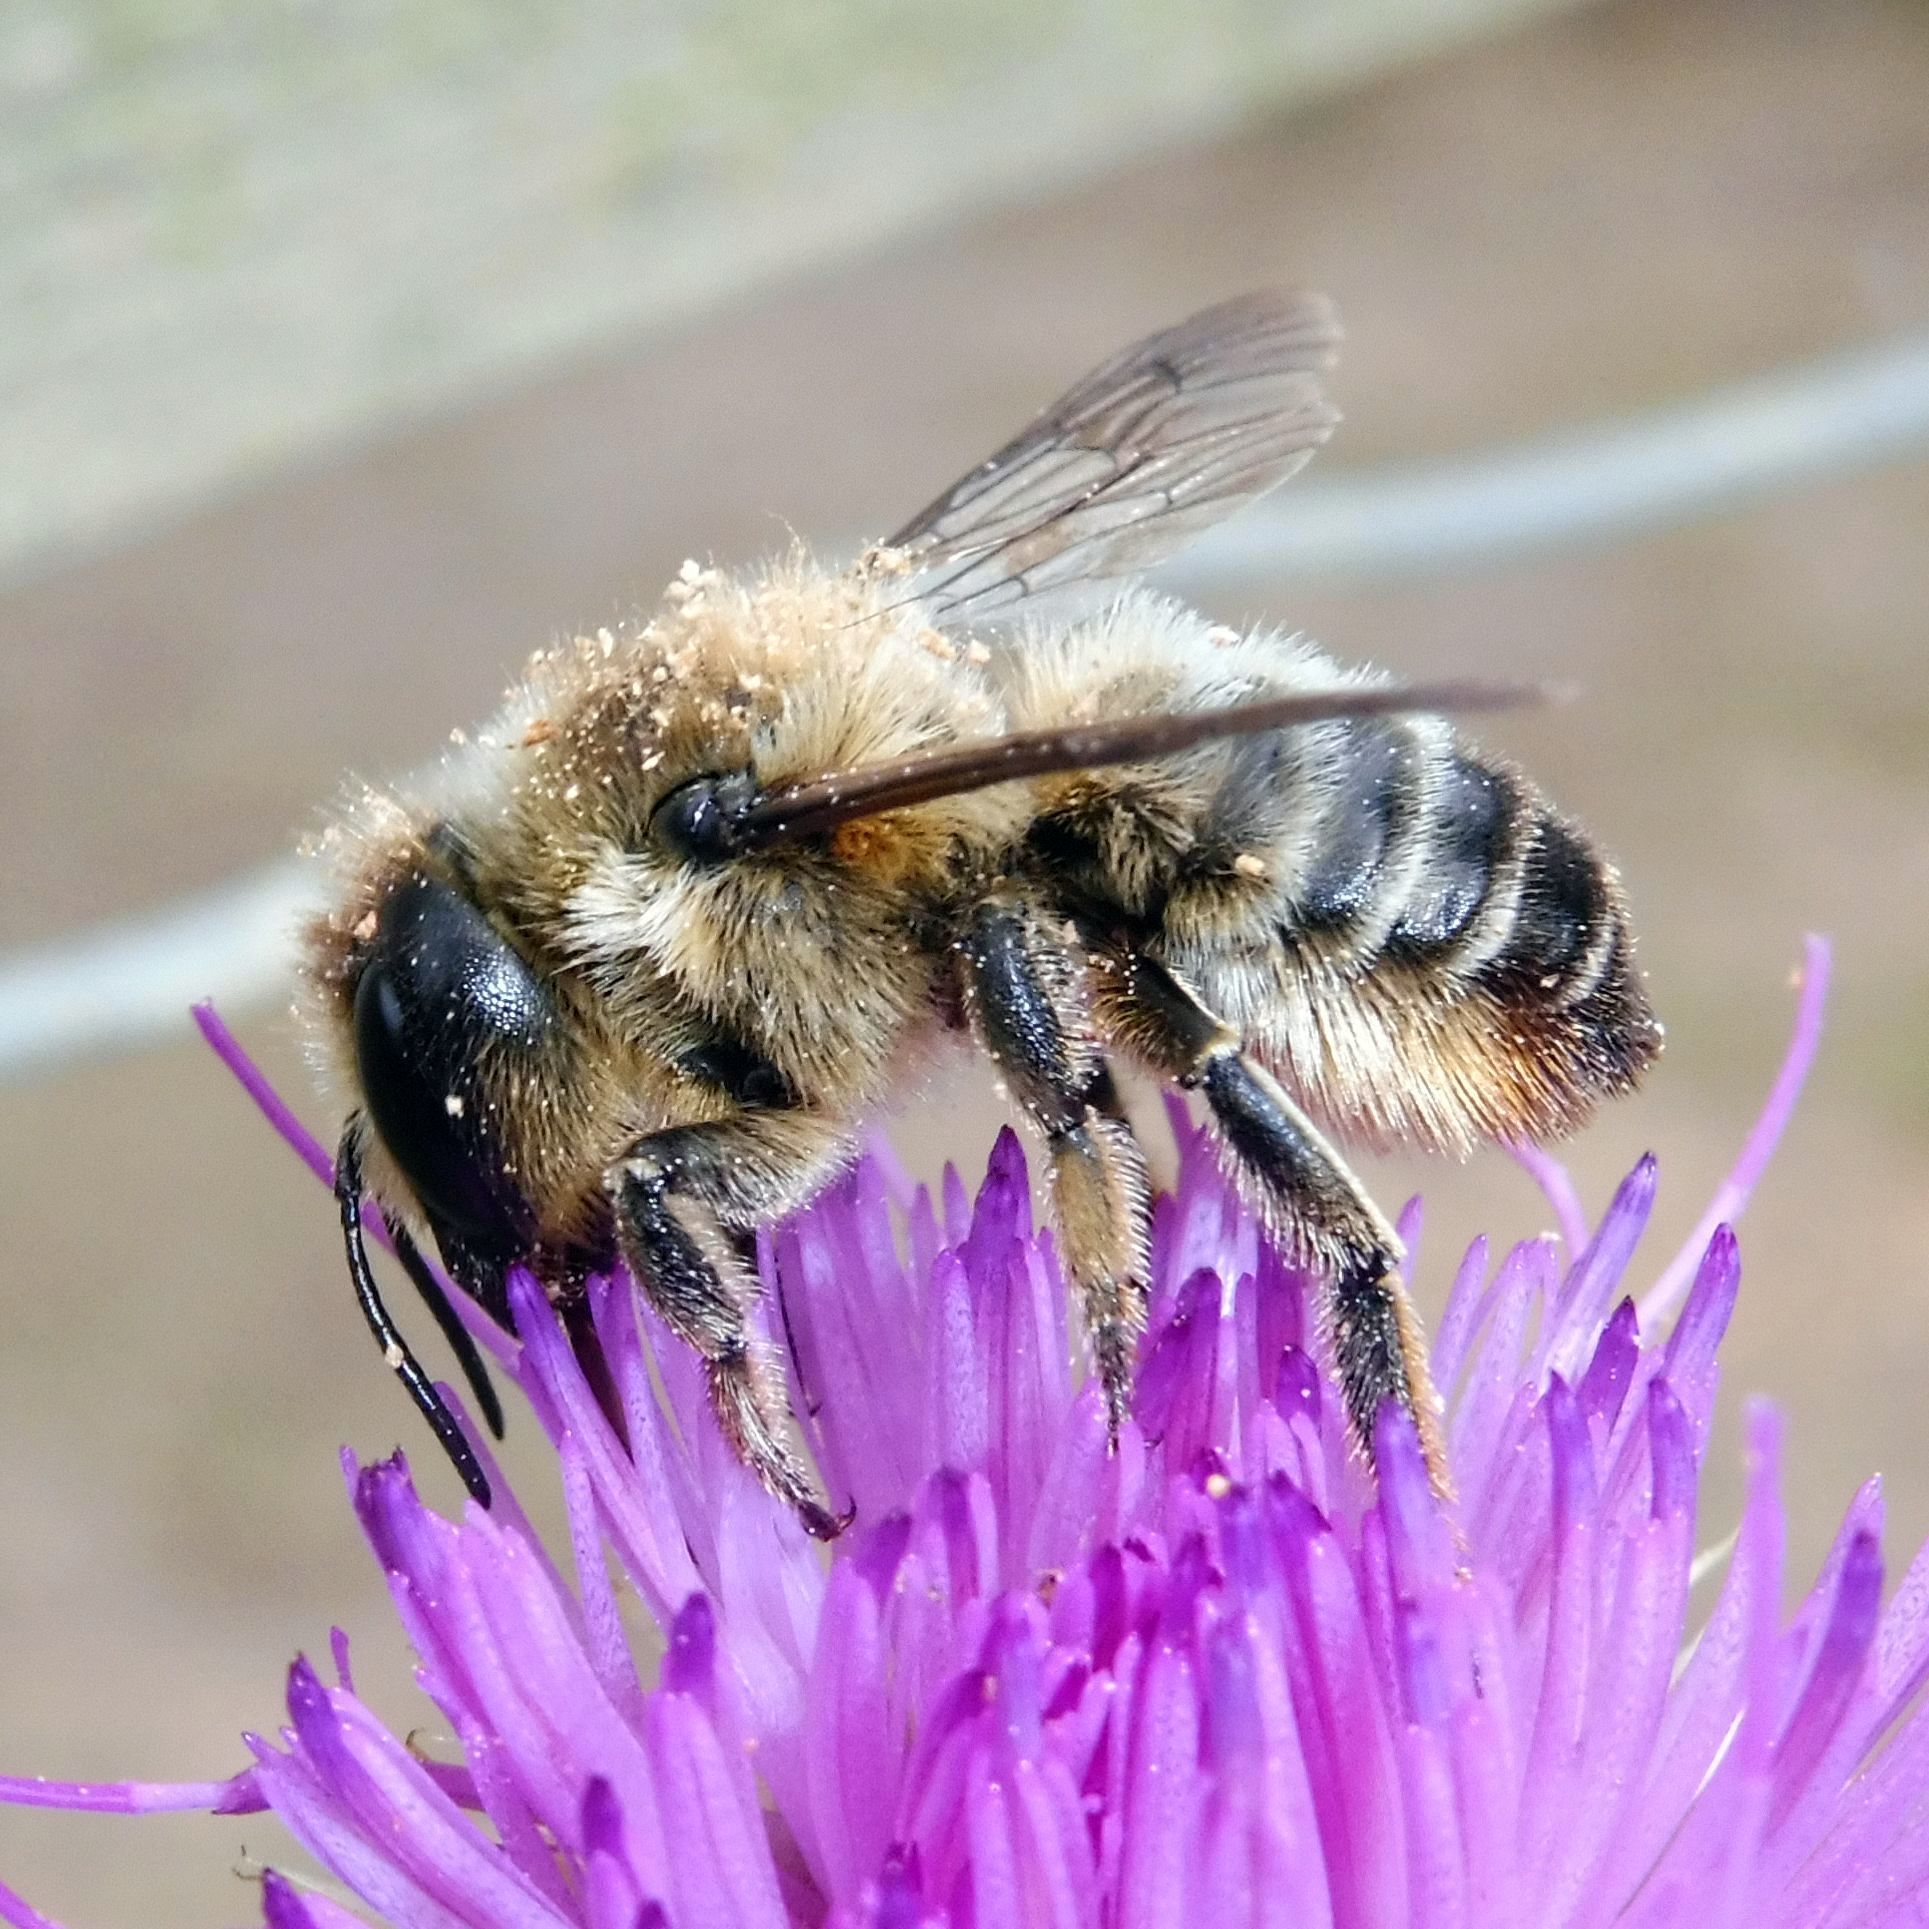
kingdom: Animalia
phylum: Arthropoda
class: Insecta
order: Hymenoptera
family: Megachilidae
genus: Megachile
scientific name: Megachile ligniseca
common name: Wood-carving leafcutter bee
